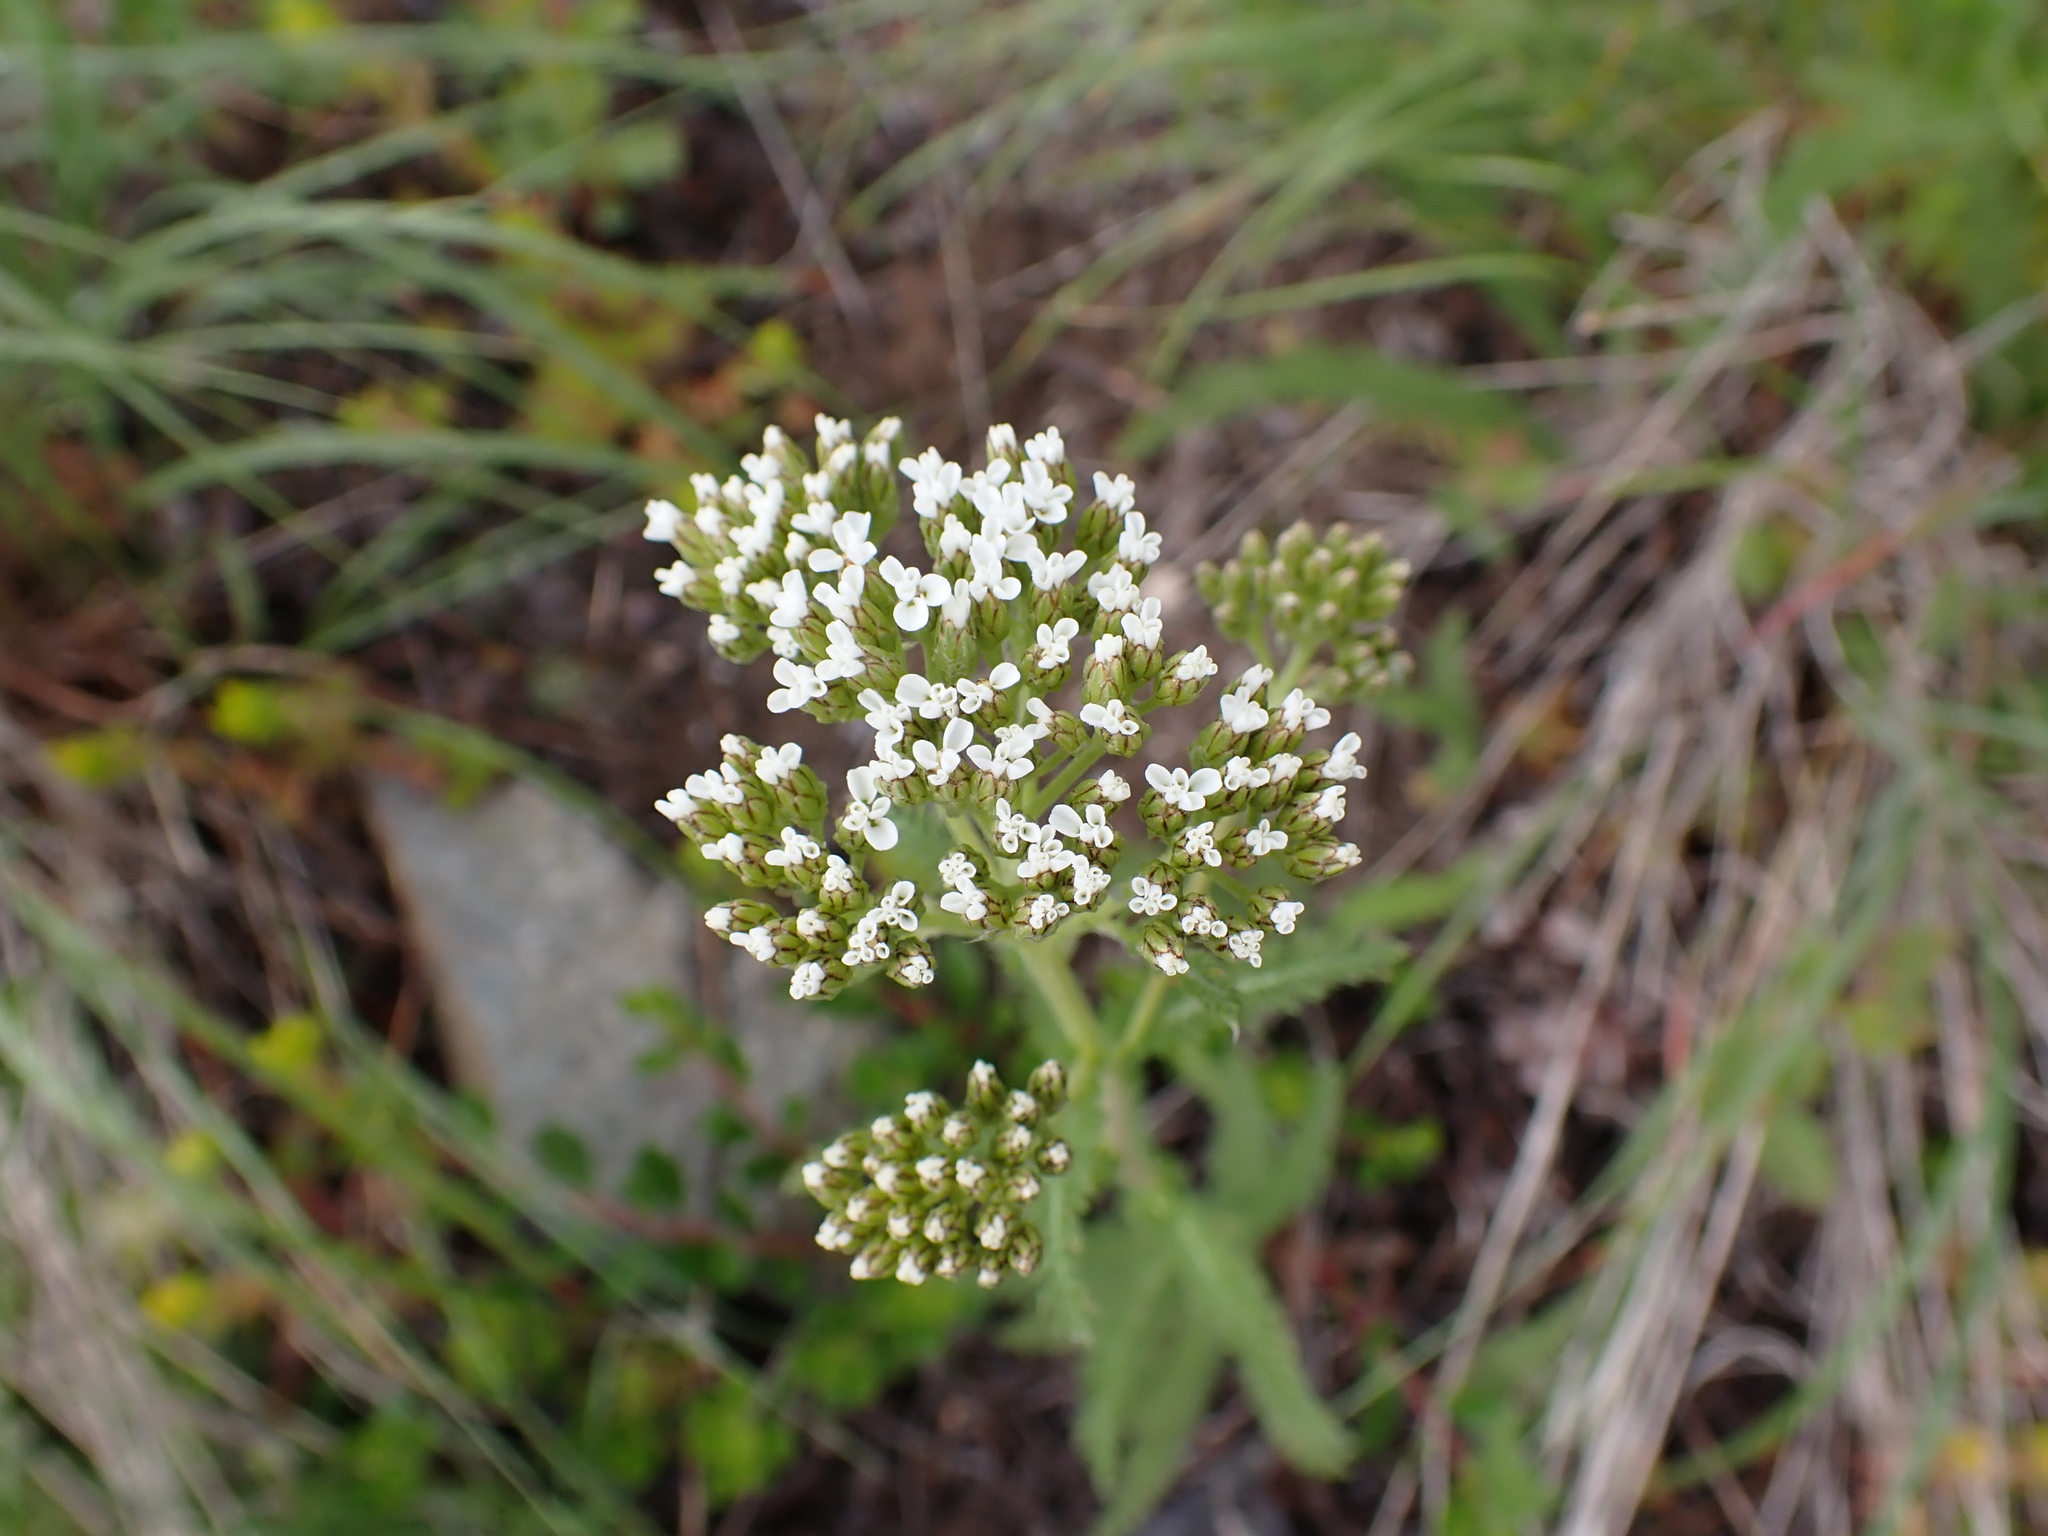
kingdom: Plantae
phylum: Tracheophyta
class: Magnoliopsida
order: Asterales
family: Asteraceae
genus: Achillea
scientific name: Achillea millefolium
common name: Yarrow
